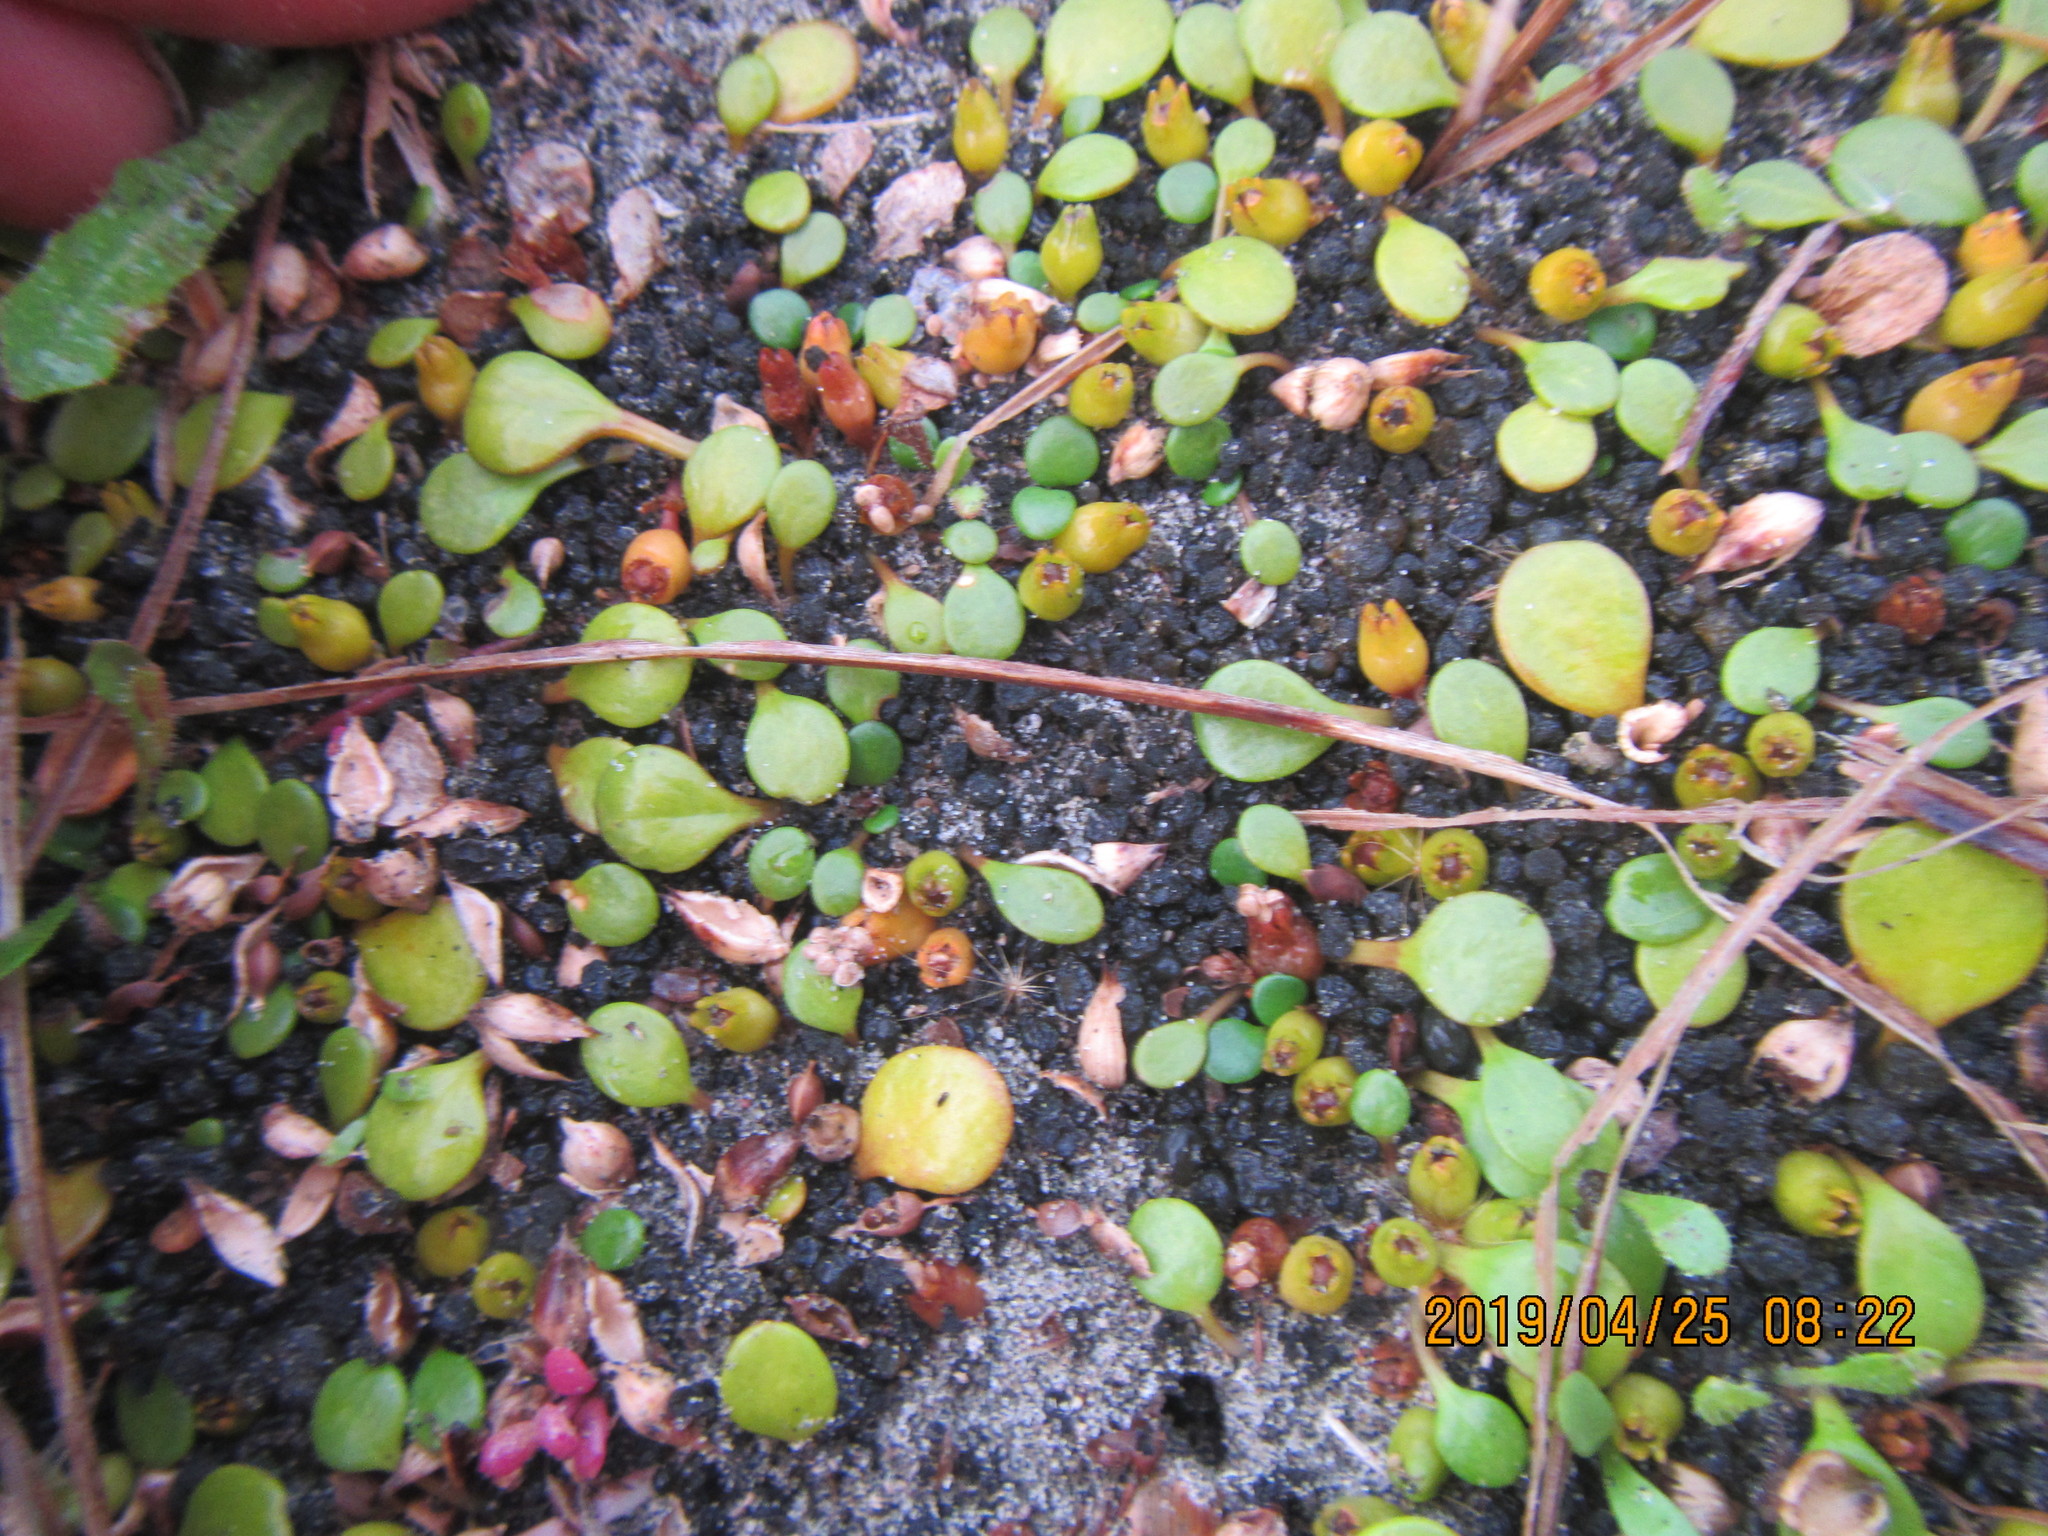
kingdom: Plantae
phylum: Tracheophyta
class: Magnoliopsida
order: Asterales
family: Goodeniaceae
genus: Goodenia
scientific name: Goodenia heenanii
